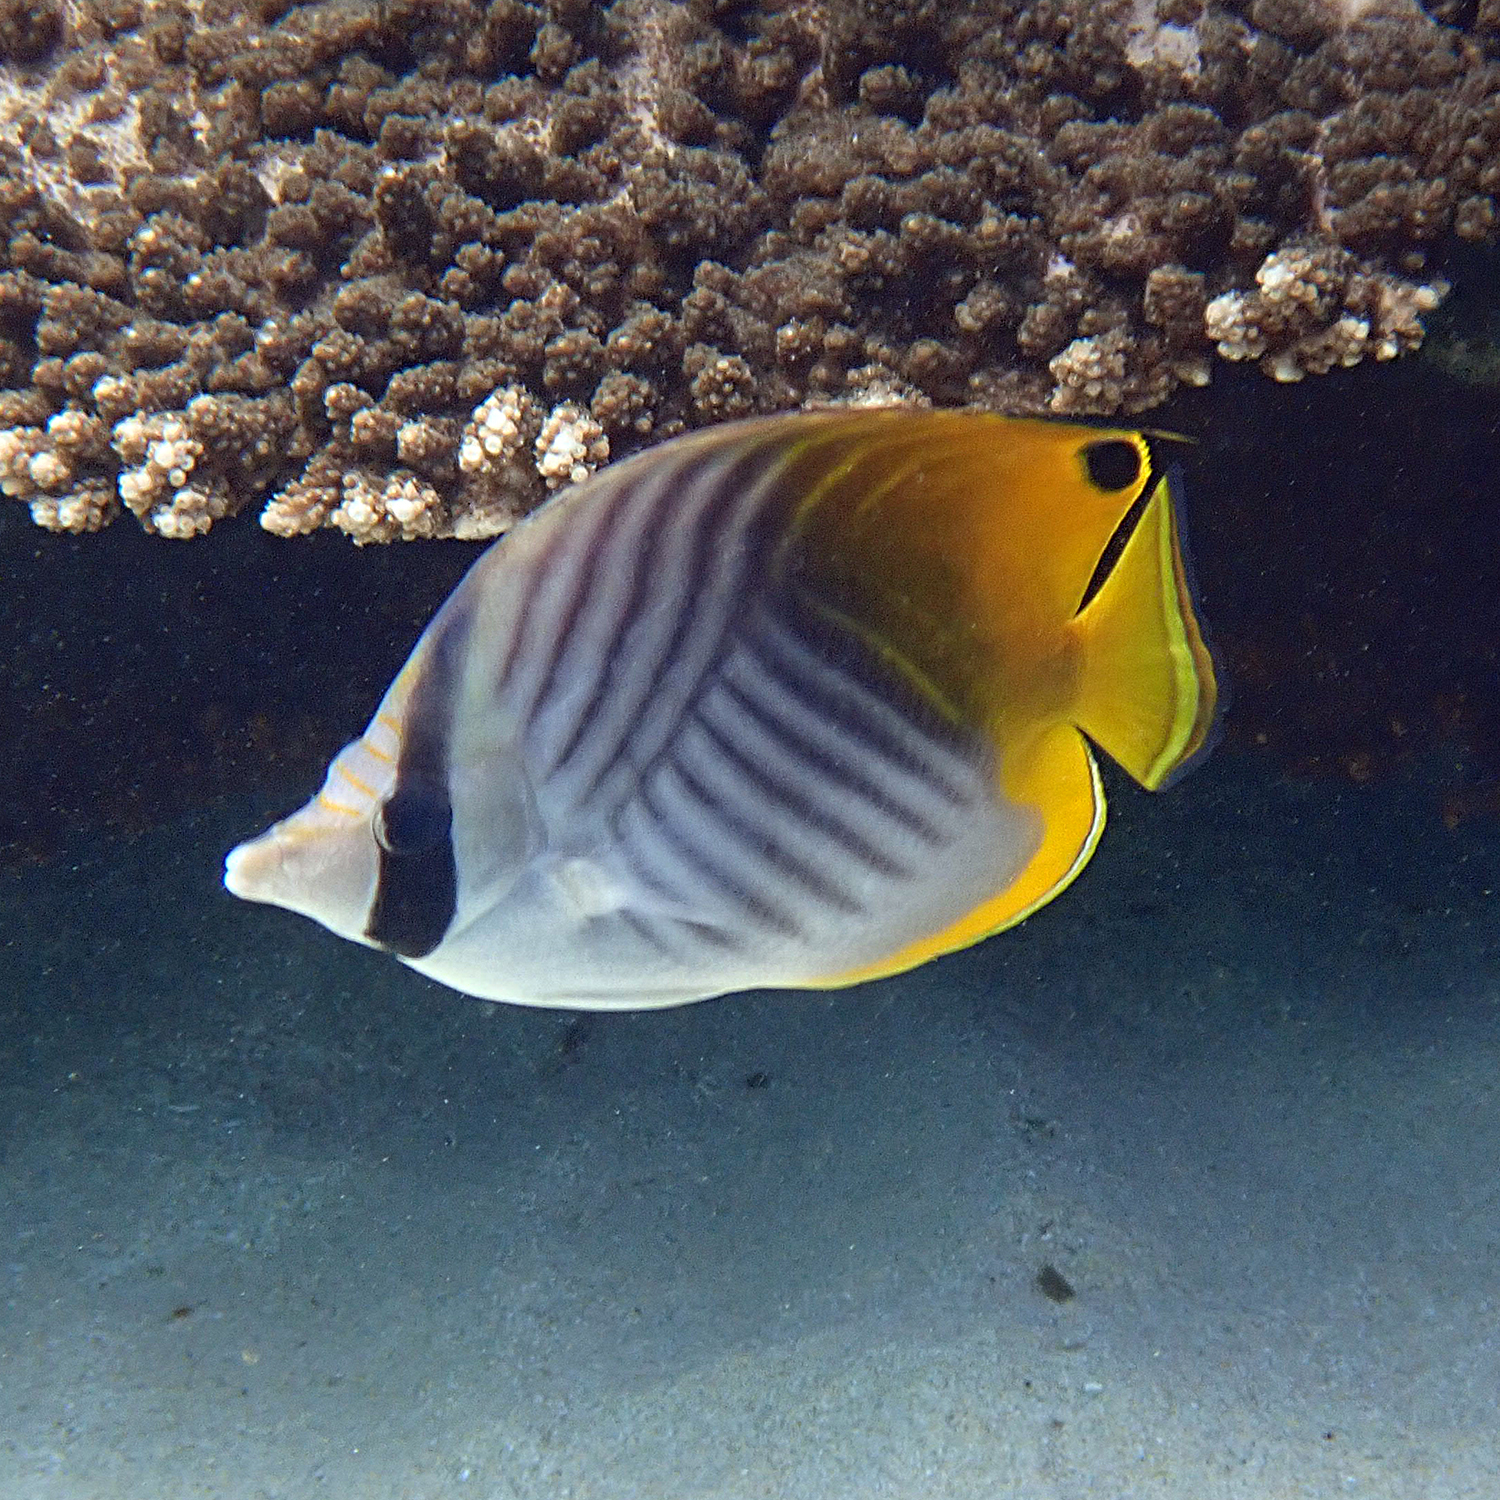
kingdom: Animalia
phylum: Chordata
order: Perciformes
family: Chaetodontidae
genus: Chaetodon
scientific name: Chaetodon auriga
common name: Threadfin butterflyfish
